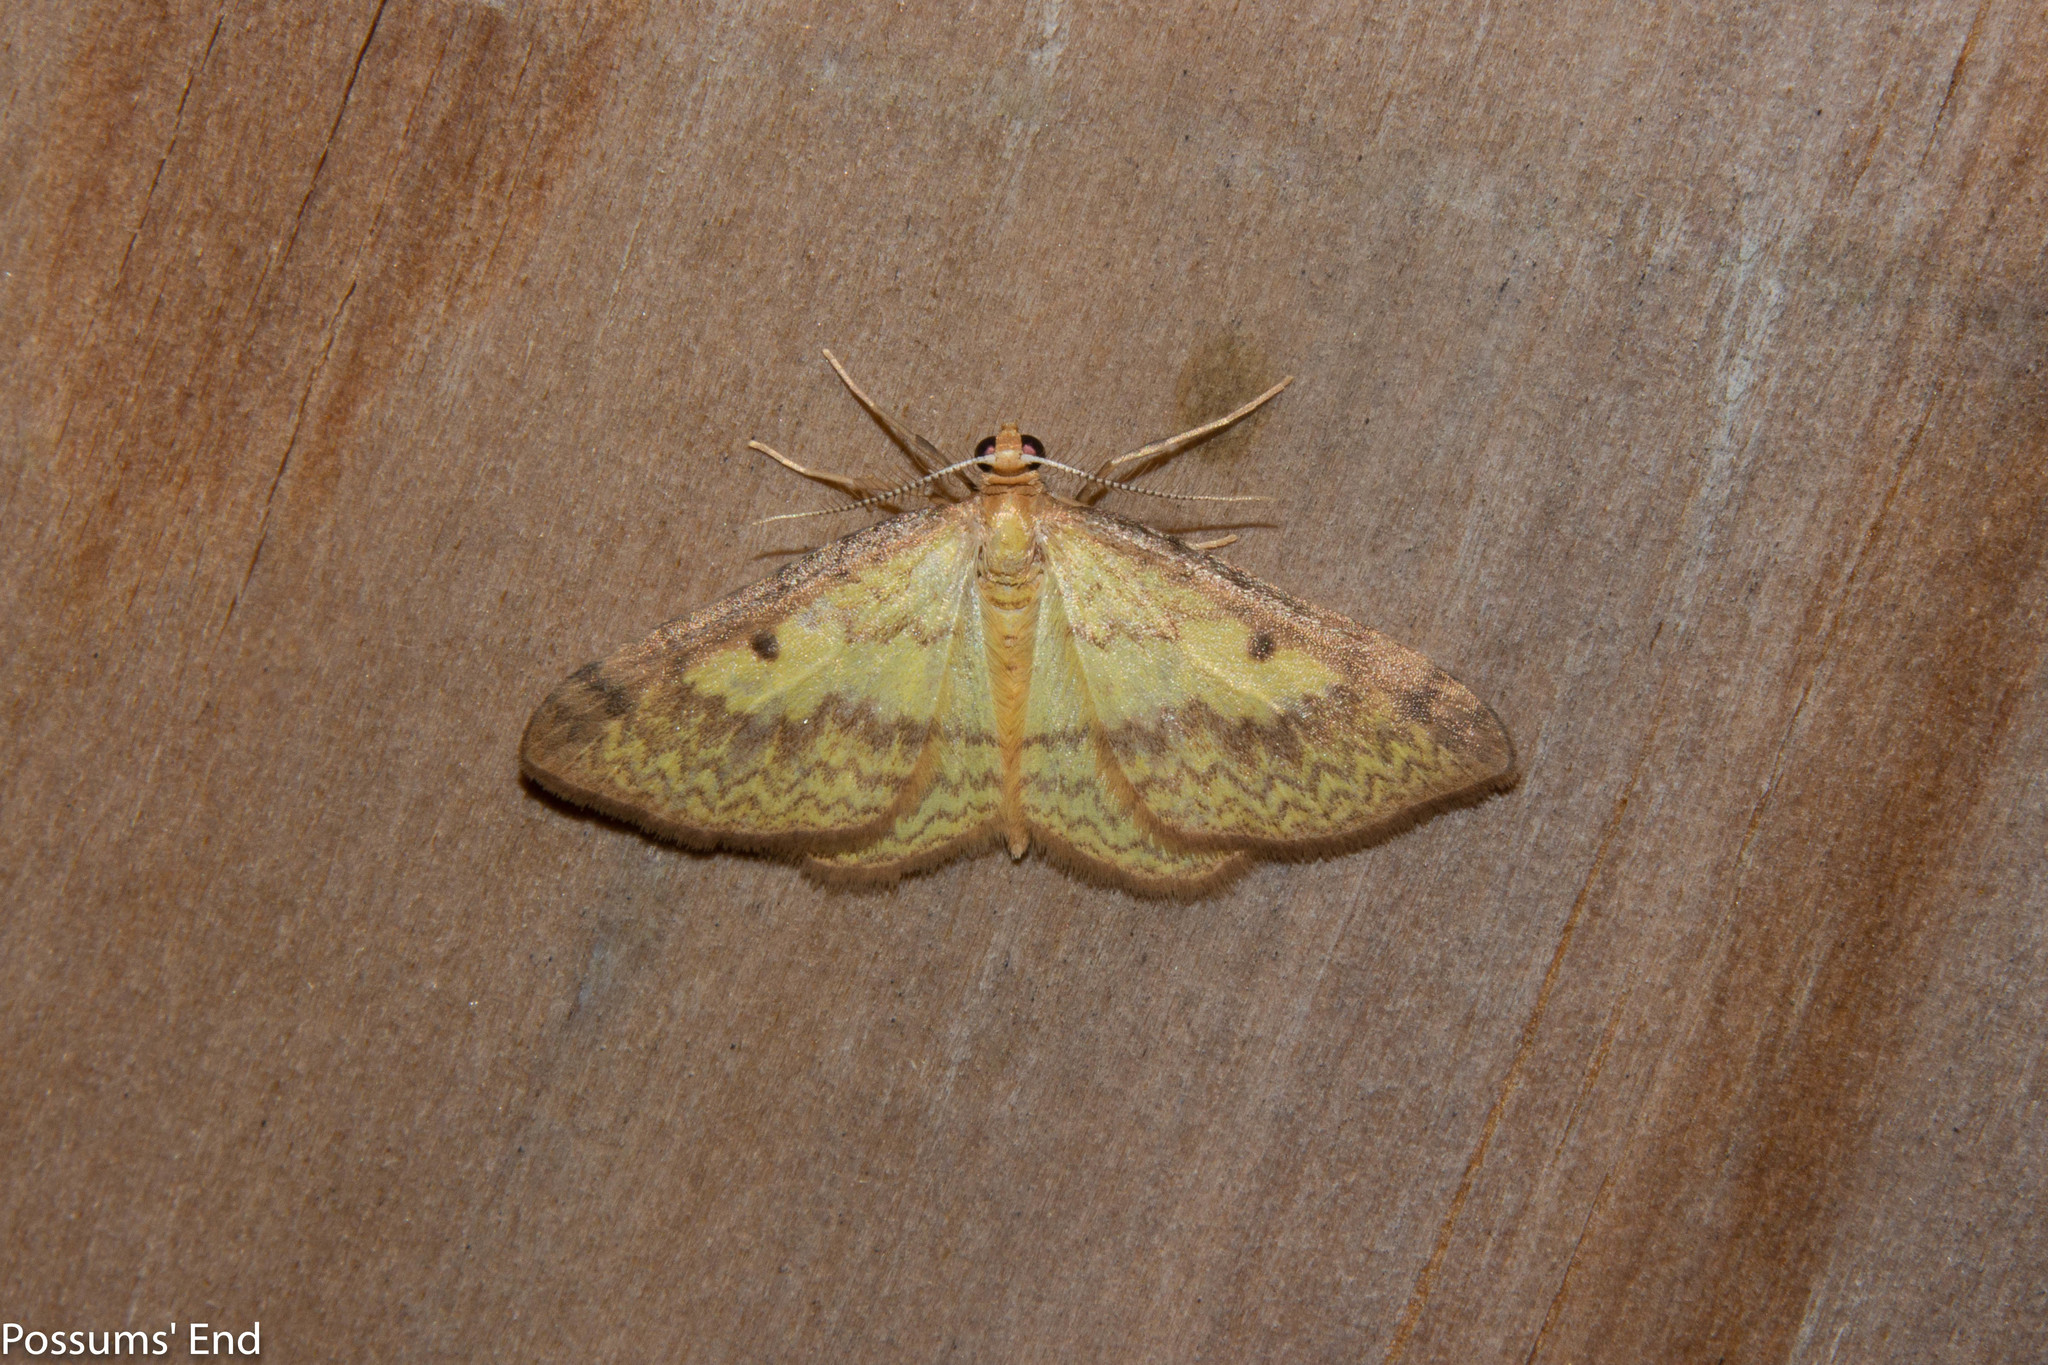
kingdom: Animalia
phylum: Arthropoda
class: Insecta
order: Lepidoptera
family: Geometridae
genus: Epiphryne
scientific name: Epiphryne undosata
